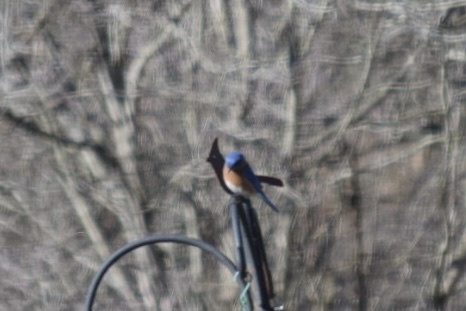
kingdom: Animalia
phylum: Chordata
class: Aves
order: Passeriformes
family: Turdidae
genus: Sialia
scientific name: Sialia sialis
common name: Eastern bluebird
